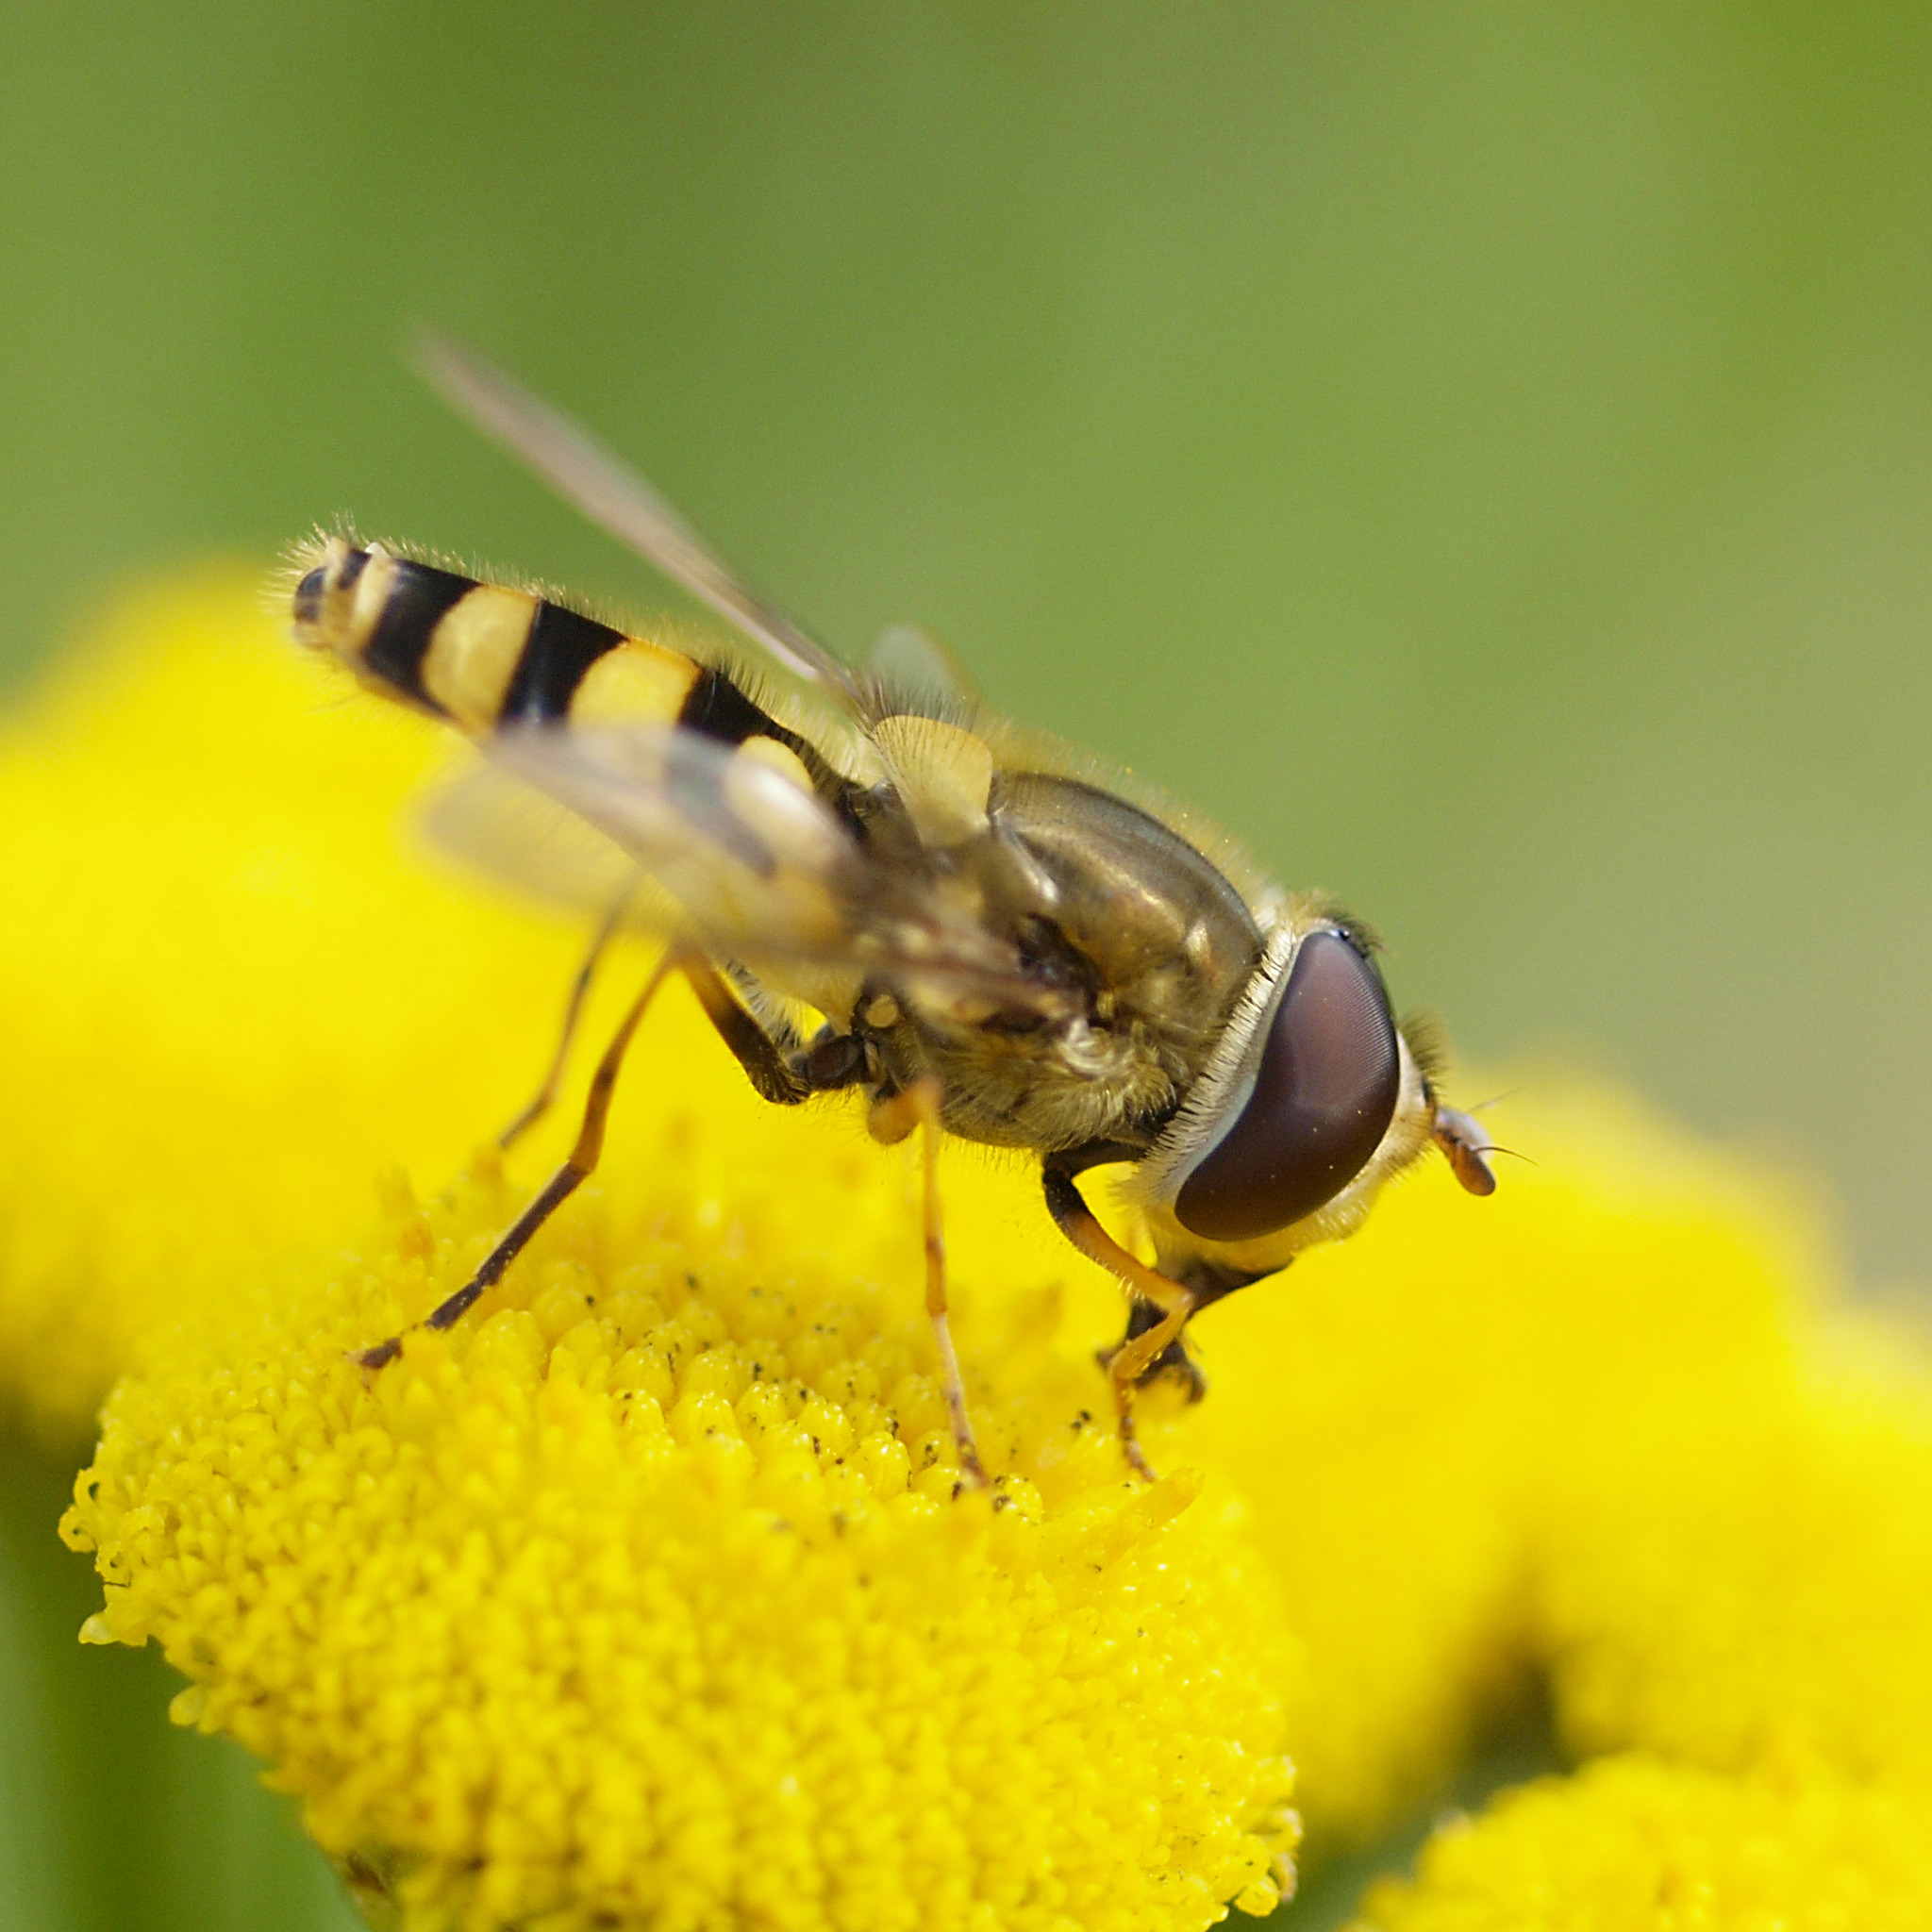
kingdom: Animalia
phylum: Arthropoda
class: Insecta
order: Diptera
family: Syrphidae
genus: Syrphus
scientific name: Syrphus vitripennis
